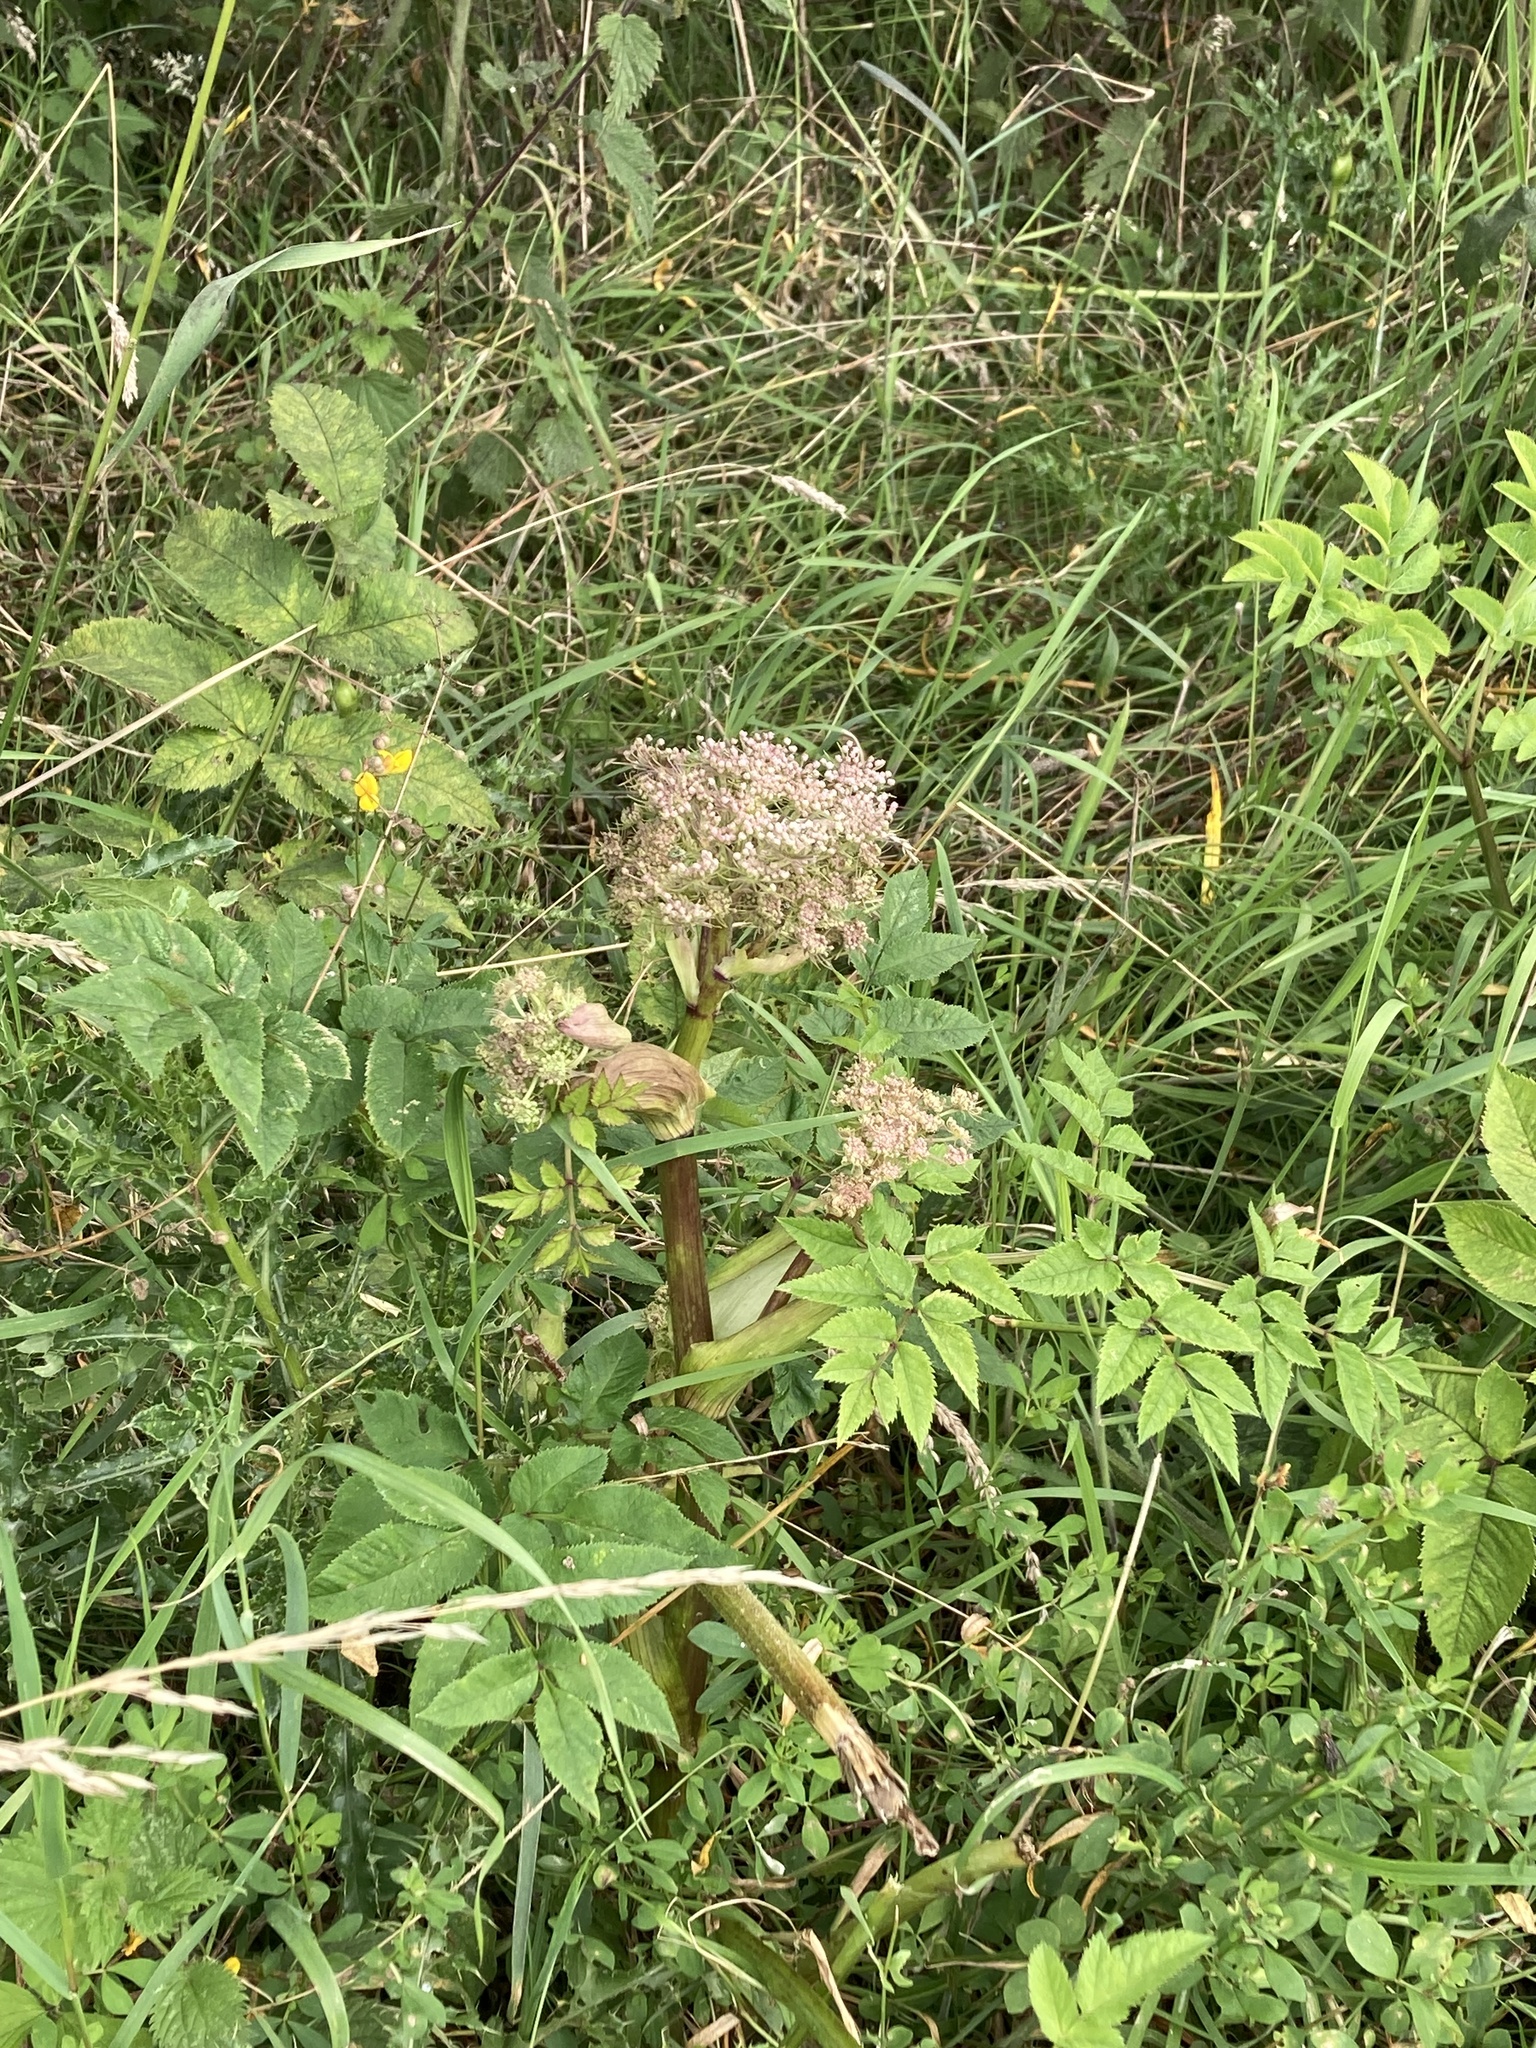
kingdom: Plantae
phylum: Tracheophyta
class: Magnoliopsida
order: Apiales
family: Apiaceae
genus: Angelica
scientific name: Angelica sylvestris
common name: Wild angelica
